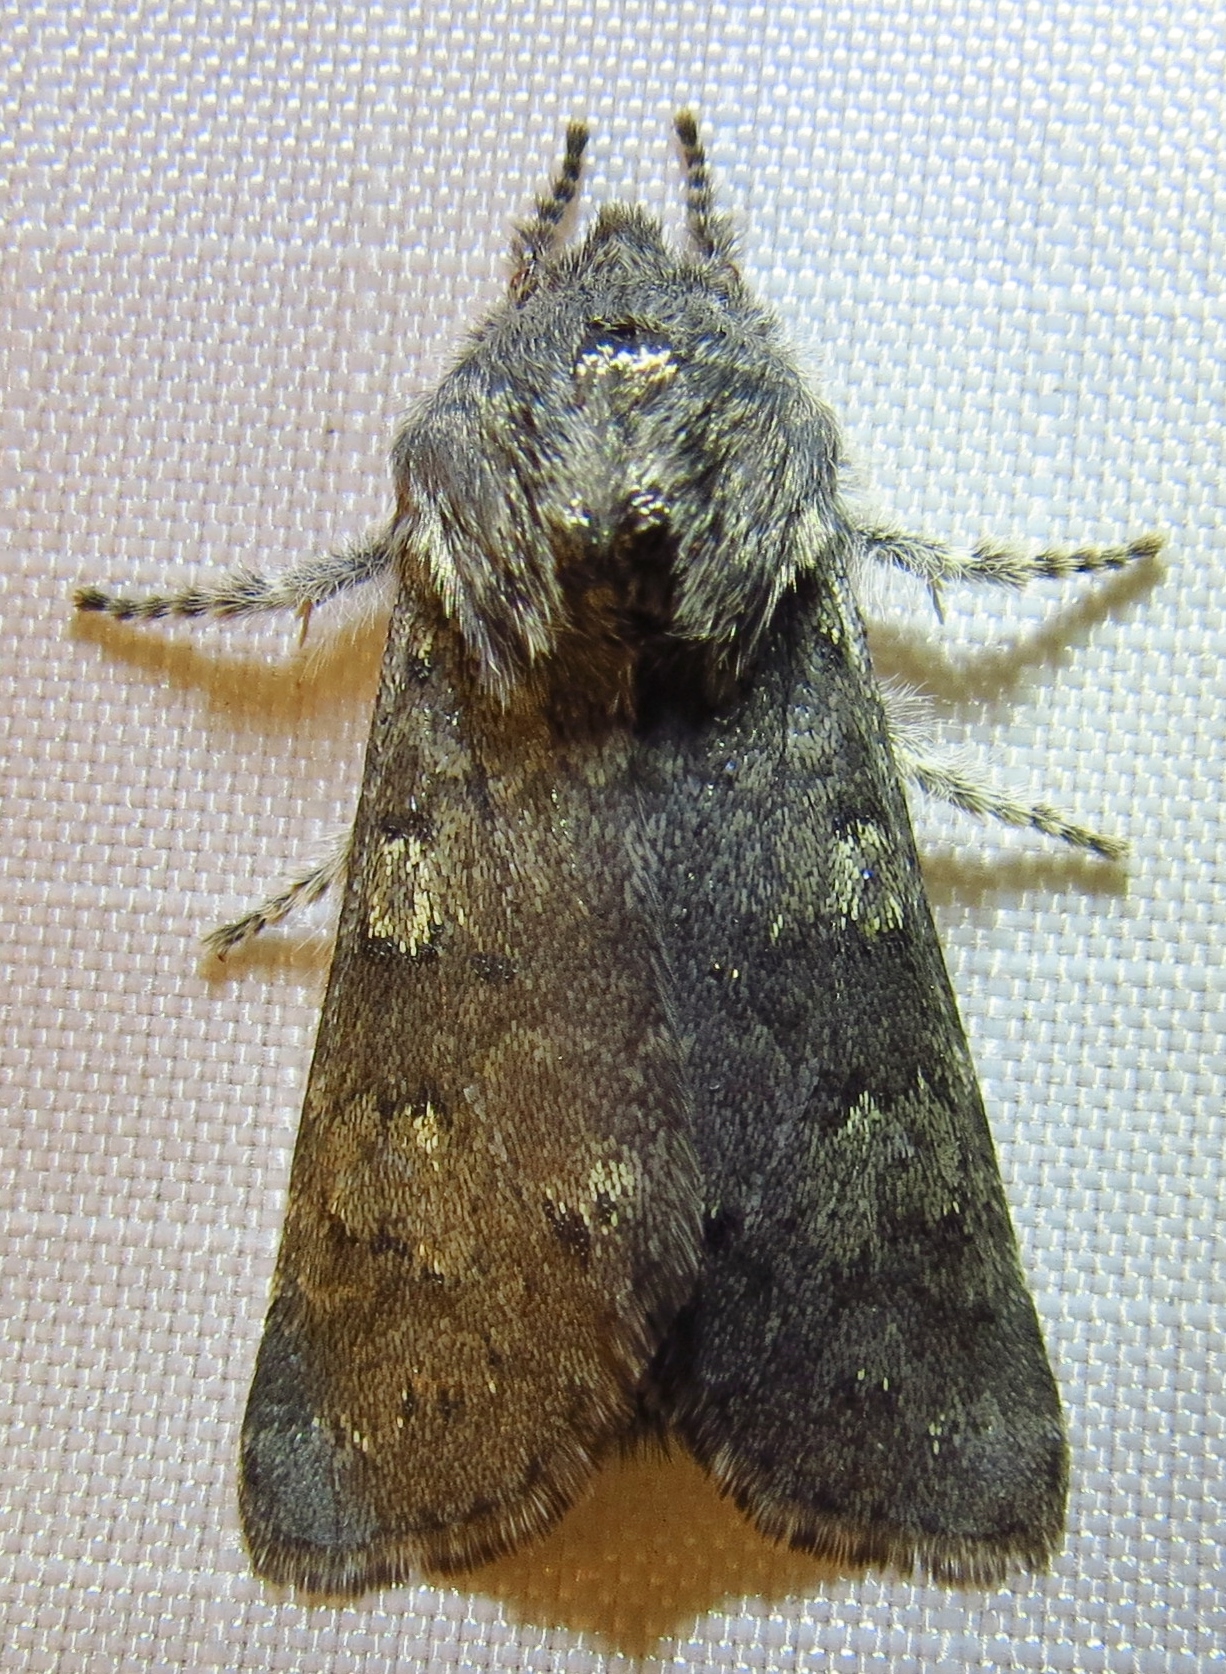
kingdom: Animalia
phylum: Arthropoda
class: Insecta
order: Lepidoptera
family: Noctuidae
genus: Psaphida
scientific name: Psaphida rolandi
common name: Roland's sallow
